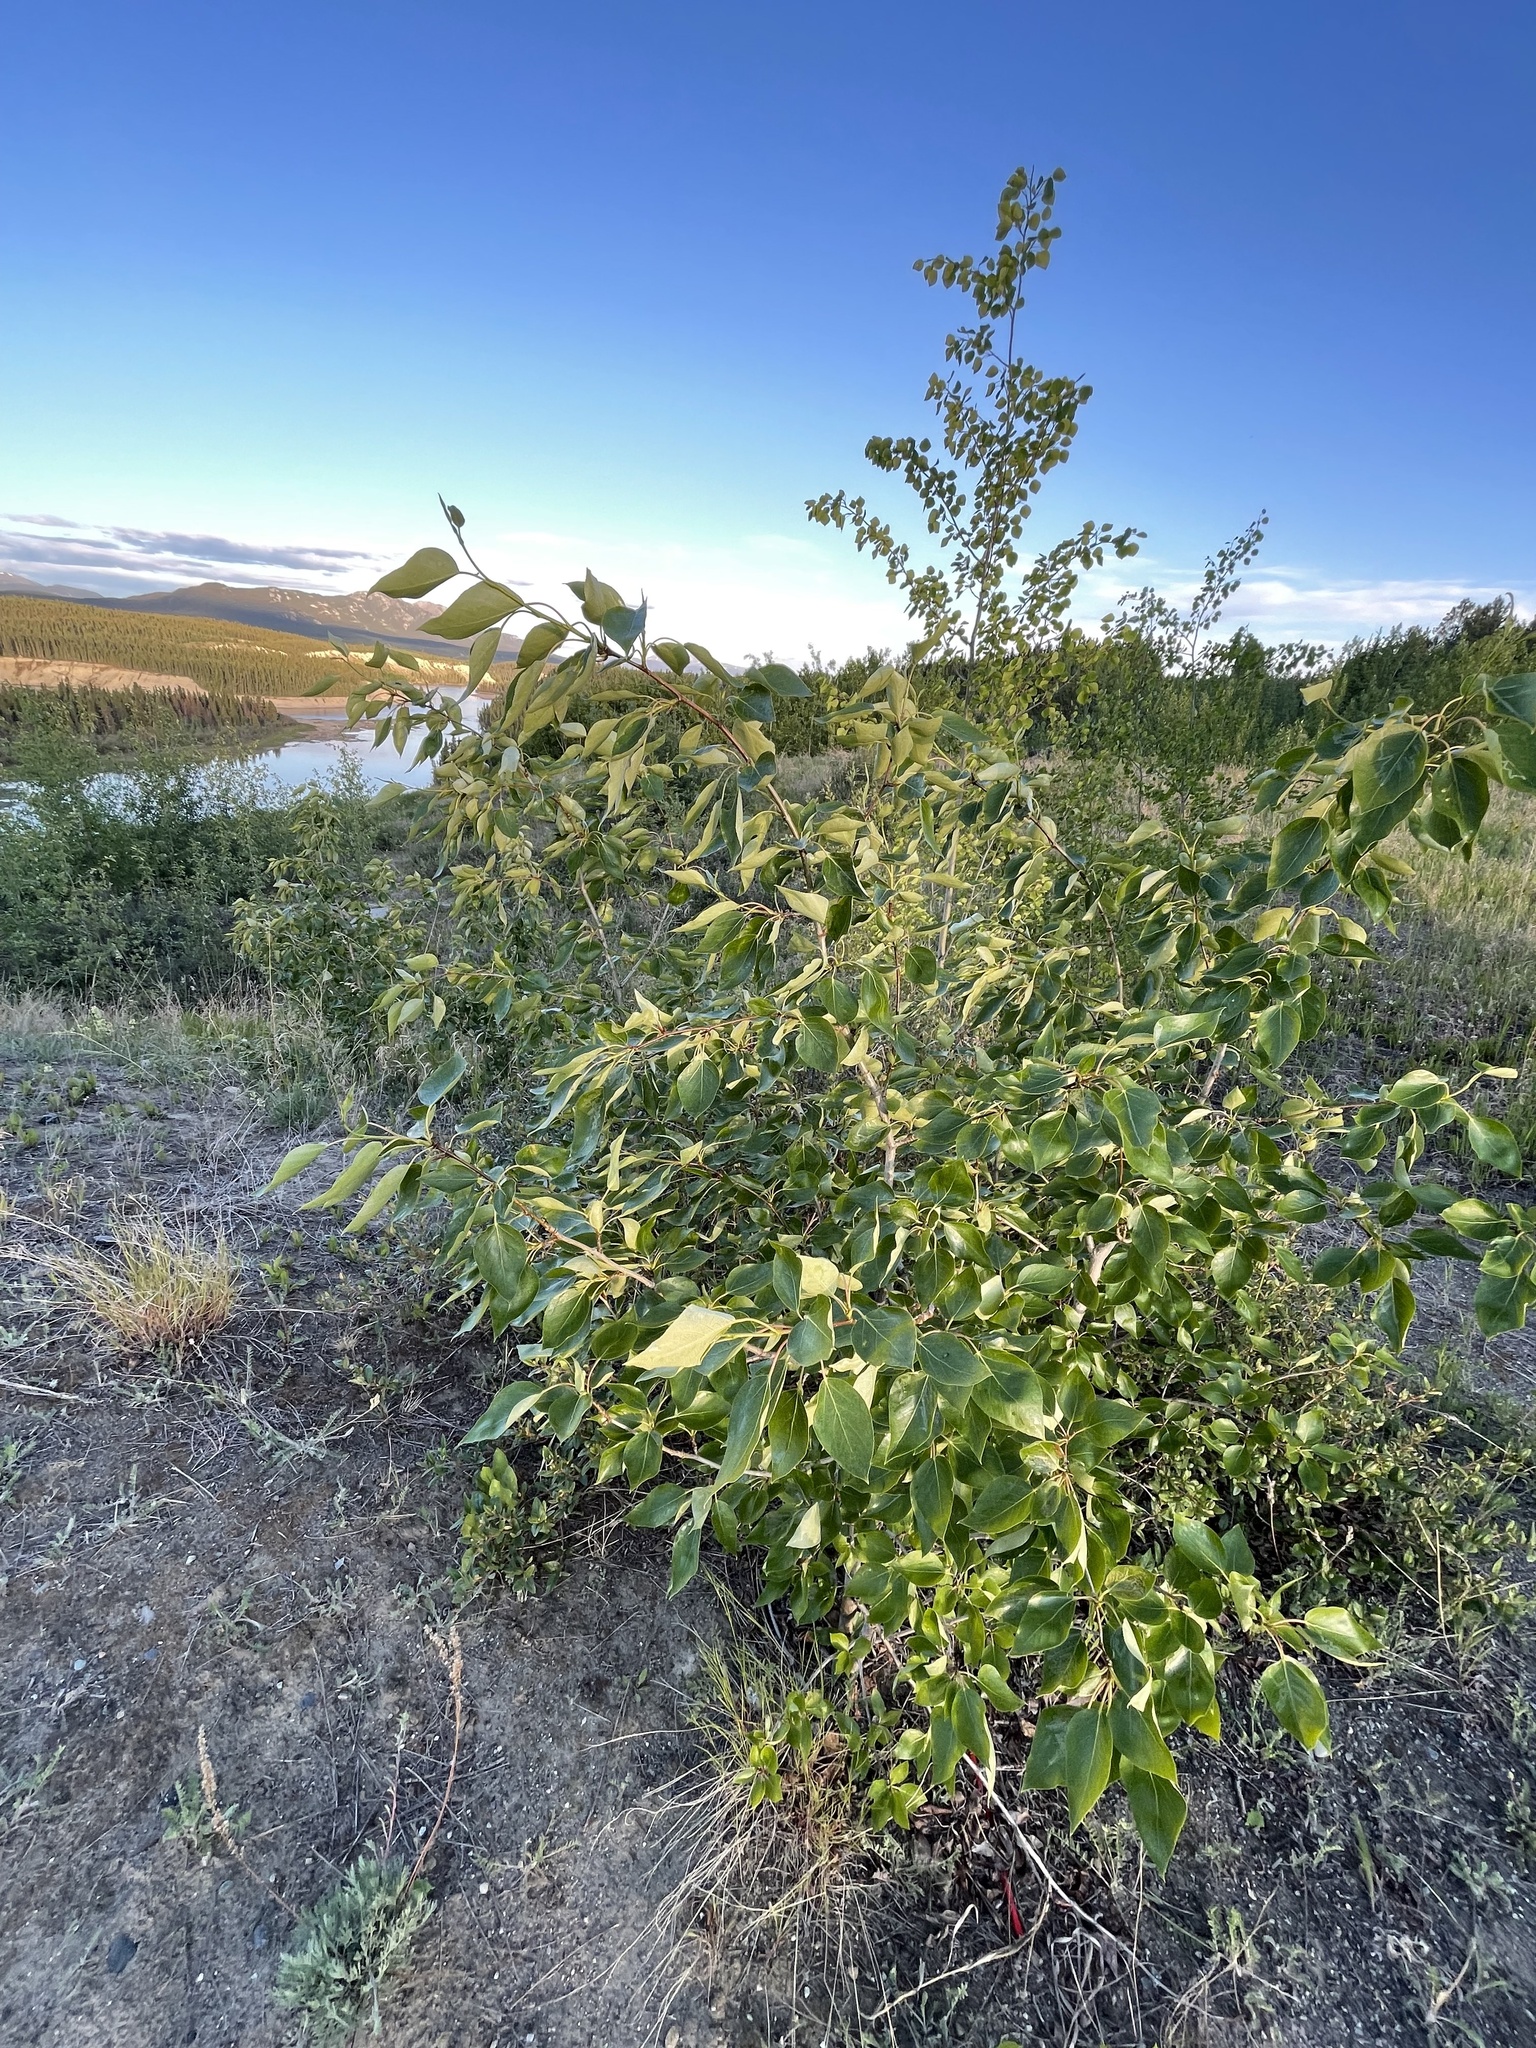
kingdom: Plantae
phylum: Tracheophyta
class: Magnoliopsida
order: Malpighiales
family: Salicaceae
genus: Populus
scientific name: Populus tremuloides
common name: Quaking aspen
